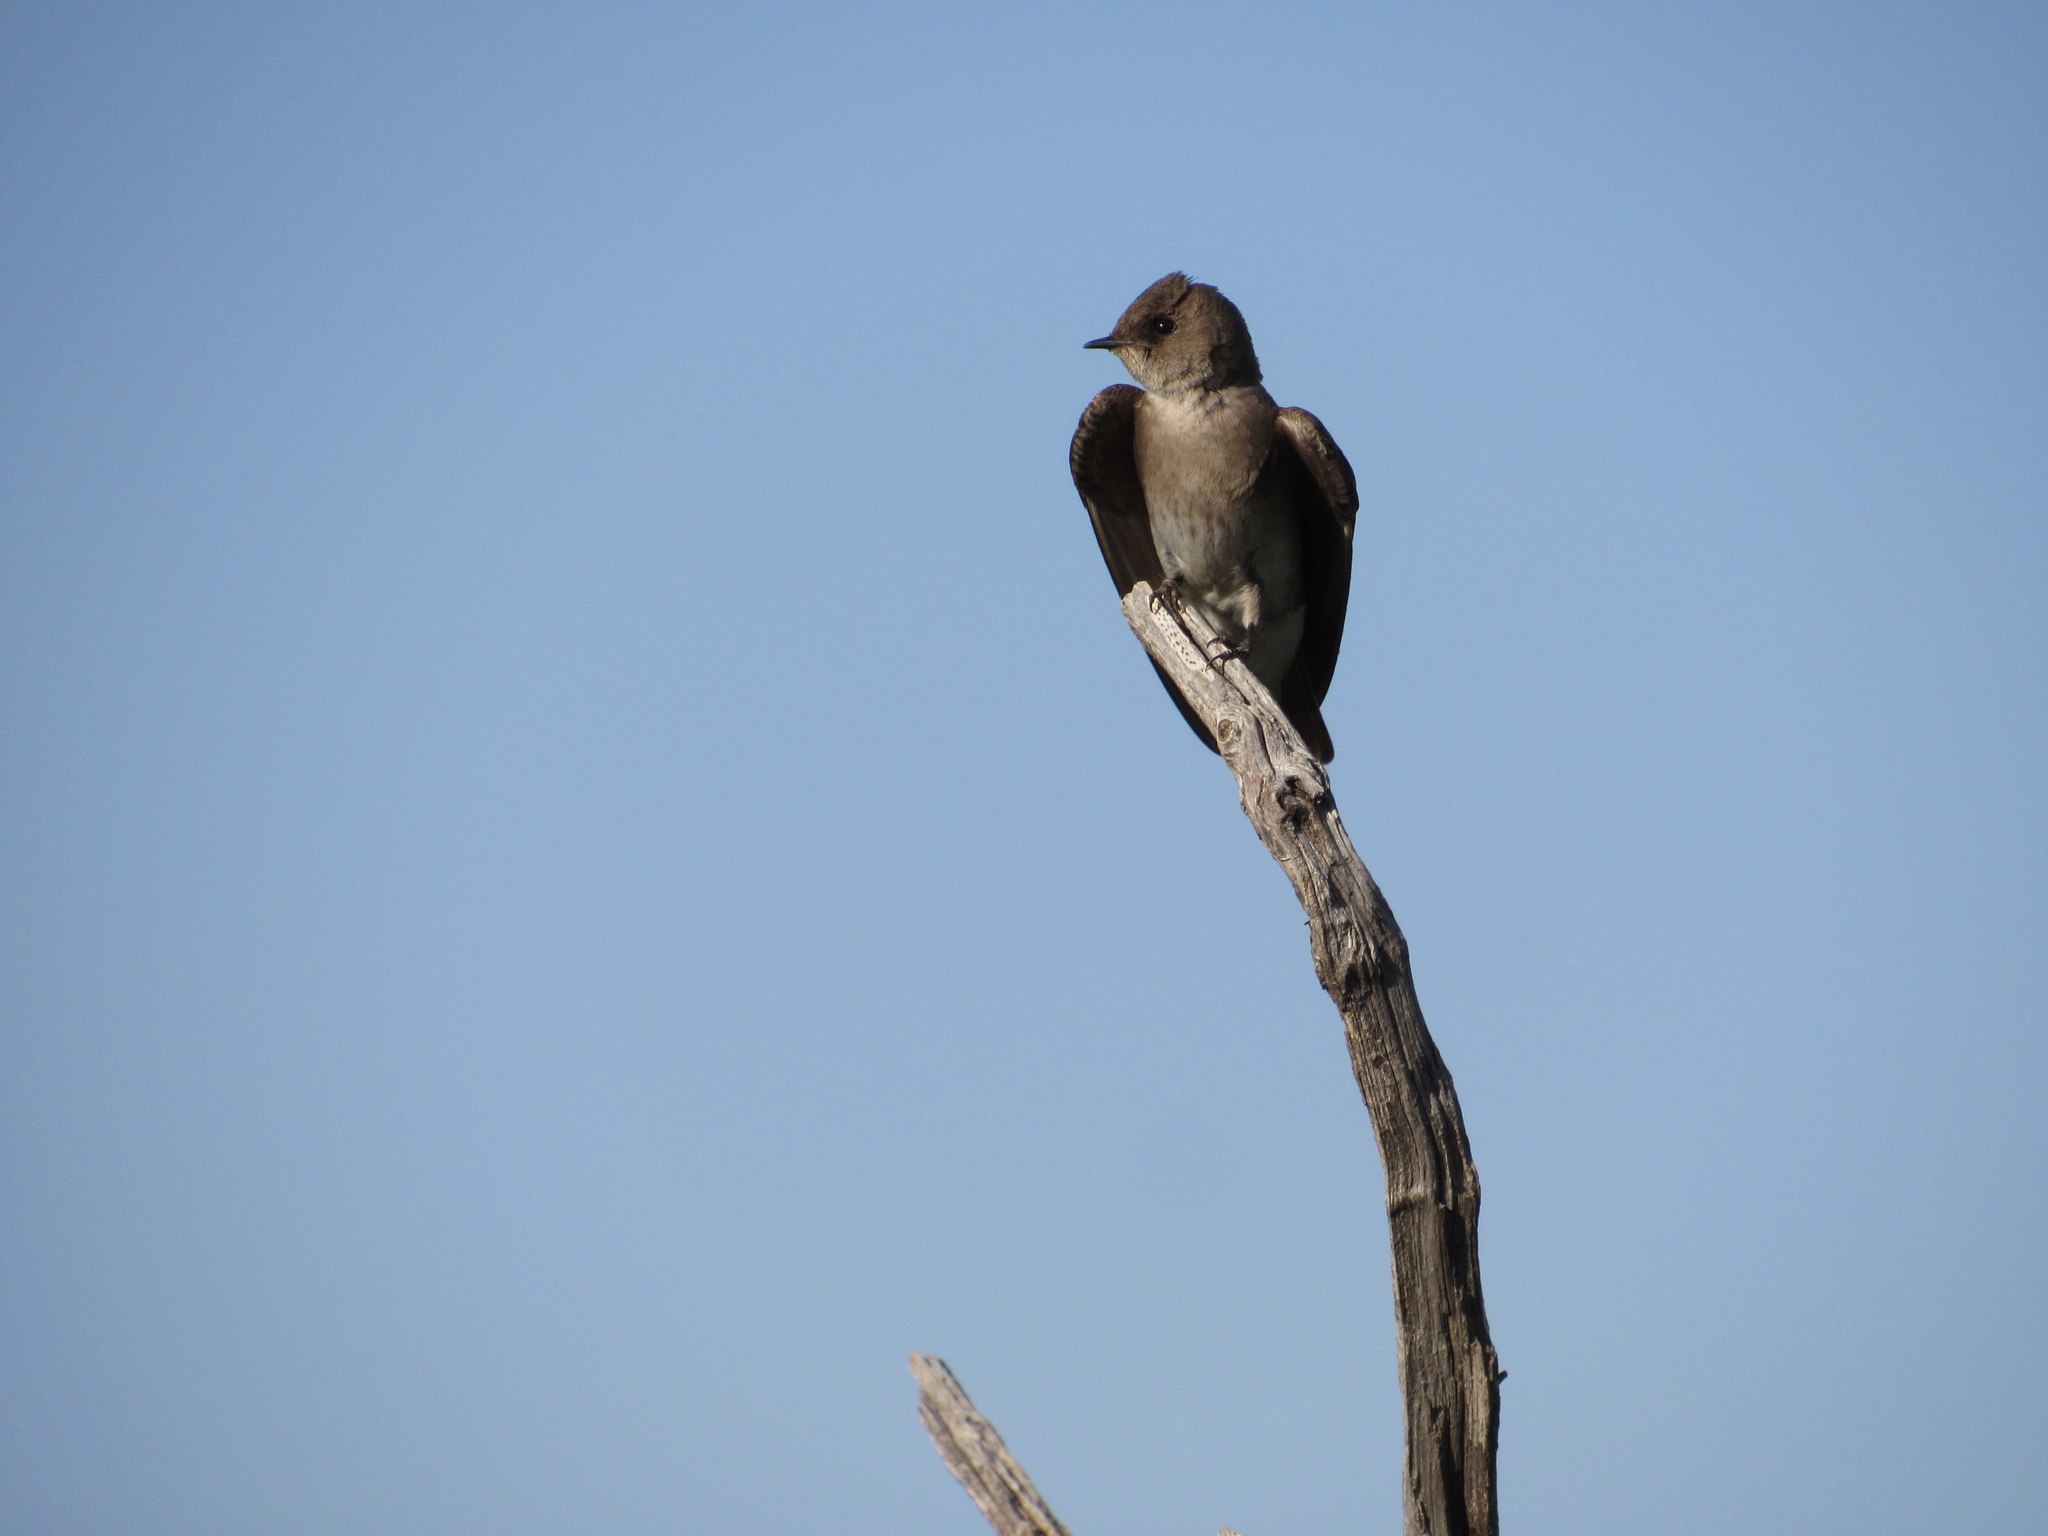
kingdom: Animalia
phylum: Chordata
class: Aves
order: Passeriformes
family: Hirundinidae
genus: Stelgidopteryx
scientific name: Stelgidopteryx serripennis
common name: Northern rough-winged swallow
